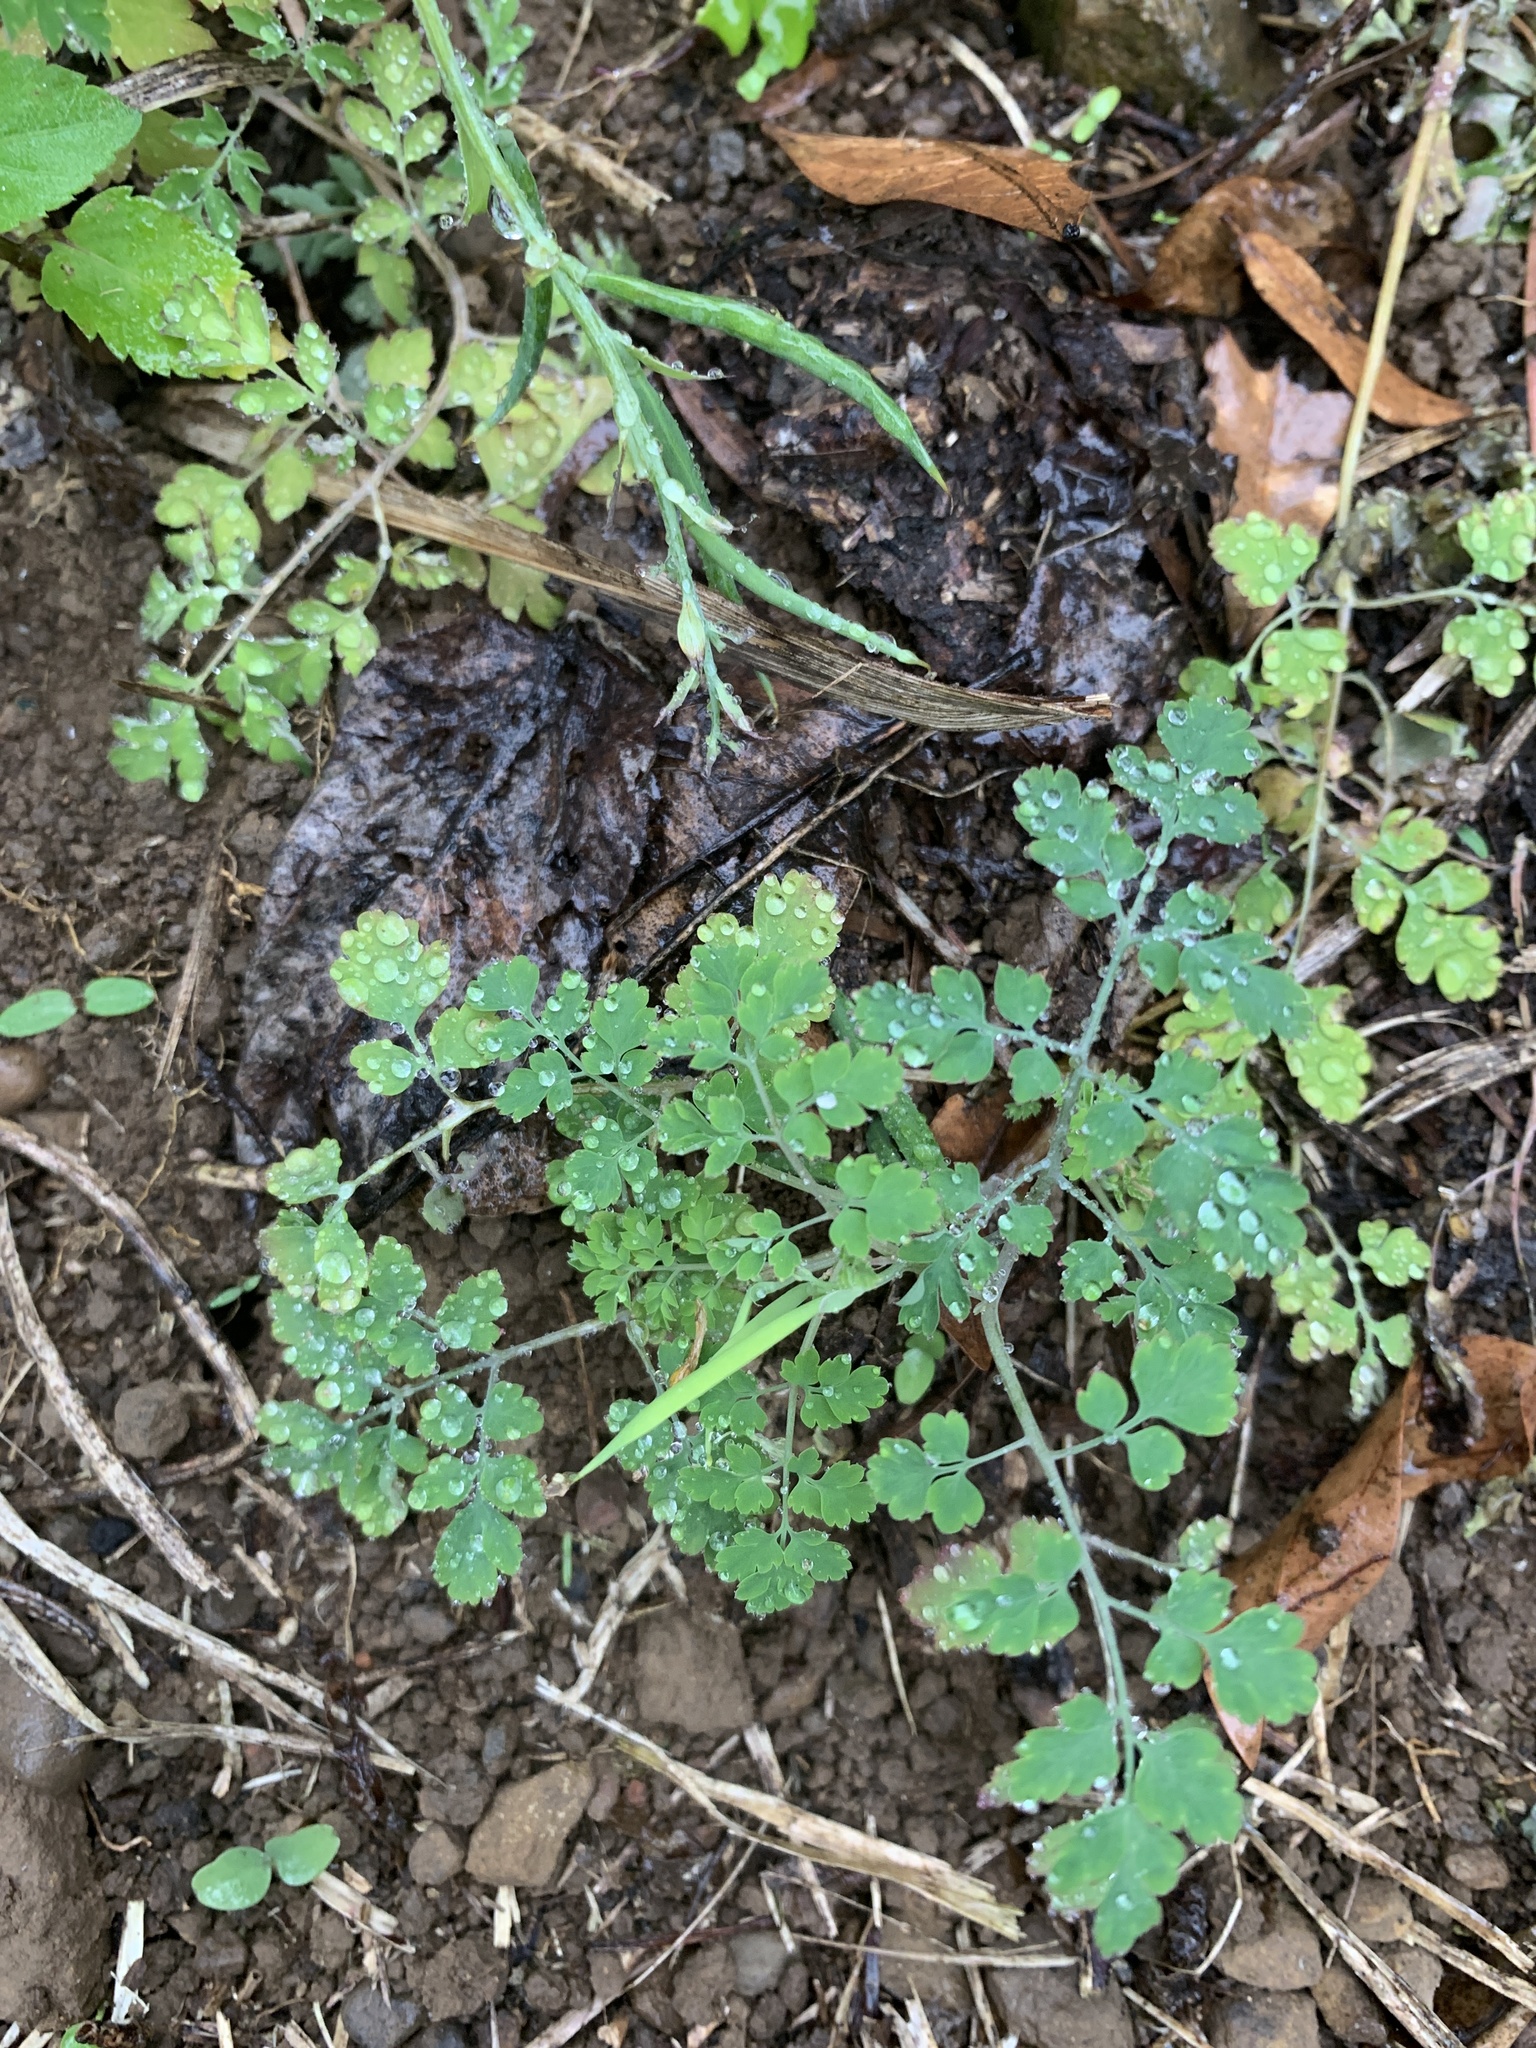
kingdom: Plantae
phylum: Tracheophyta
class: Magnoliopsida
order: Ranunculales
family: Papaveraceae
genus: Corydalis
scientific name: Corydalis balansae
